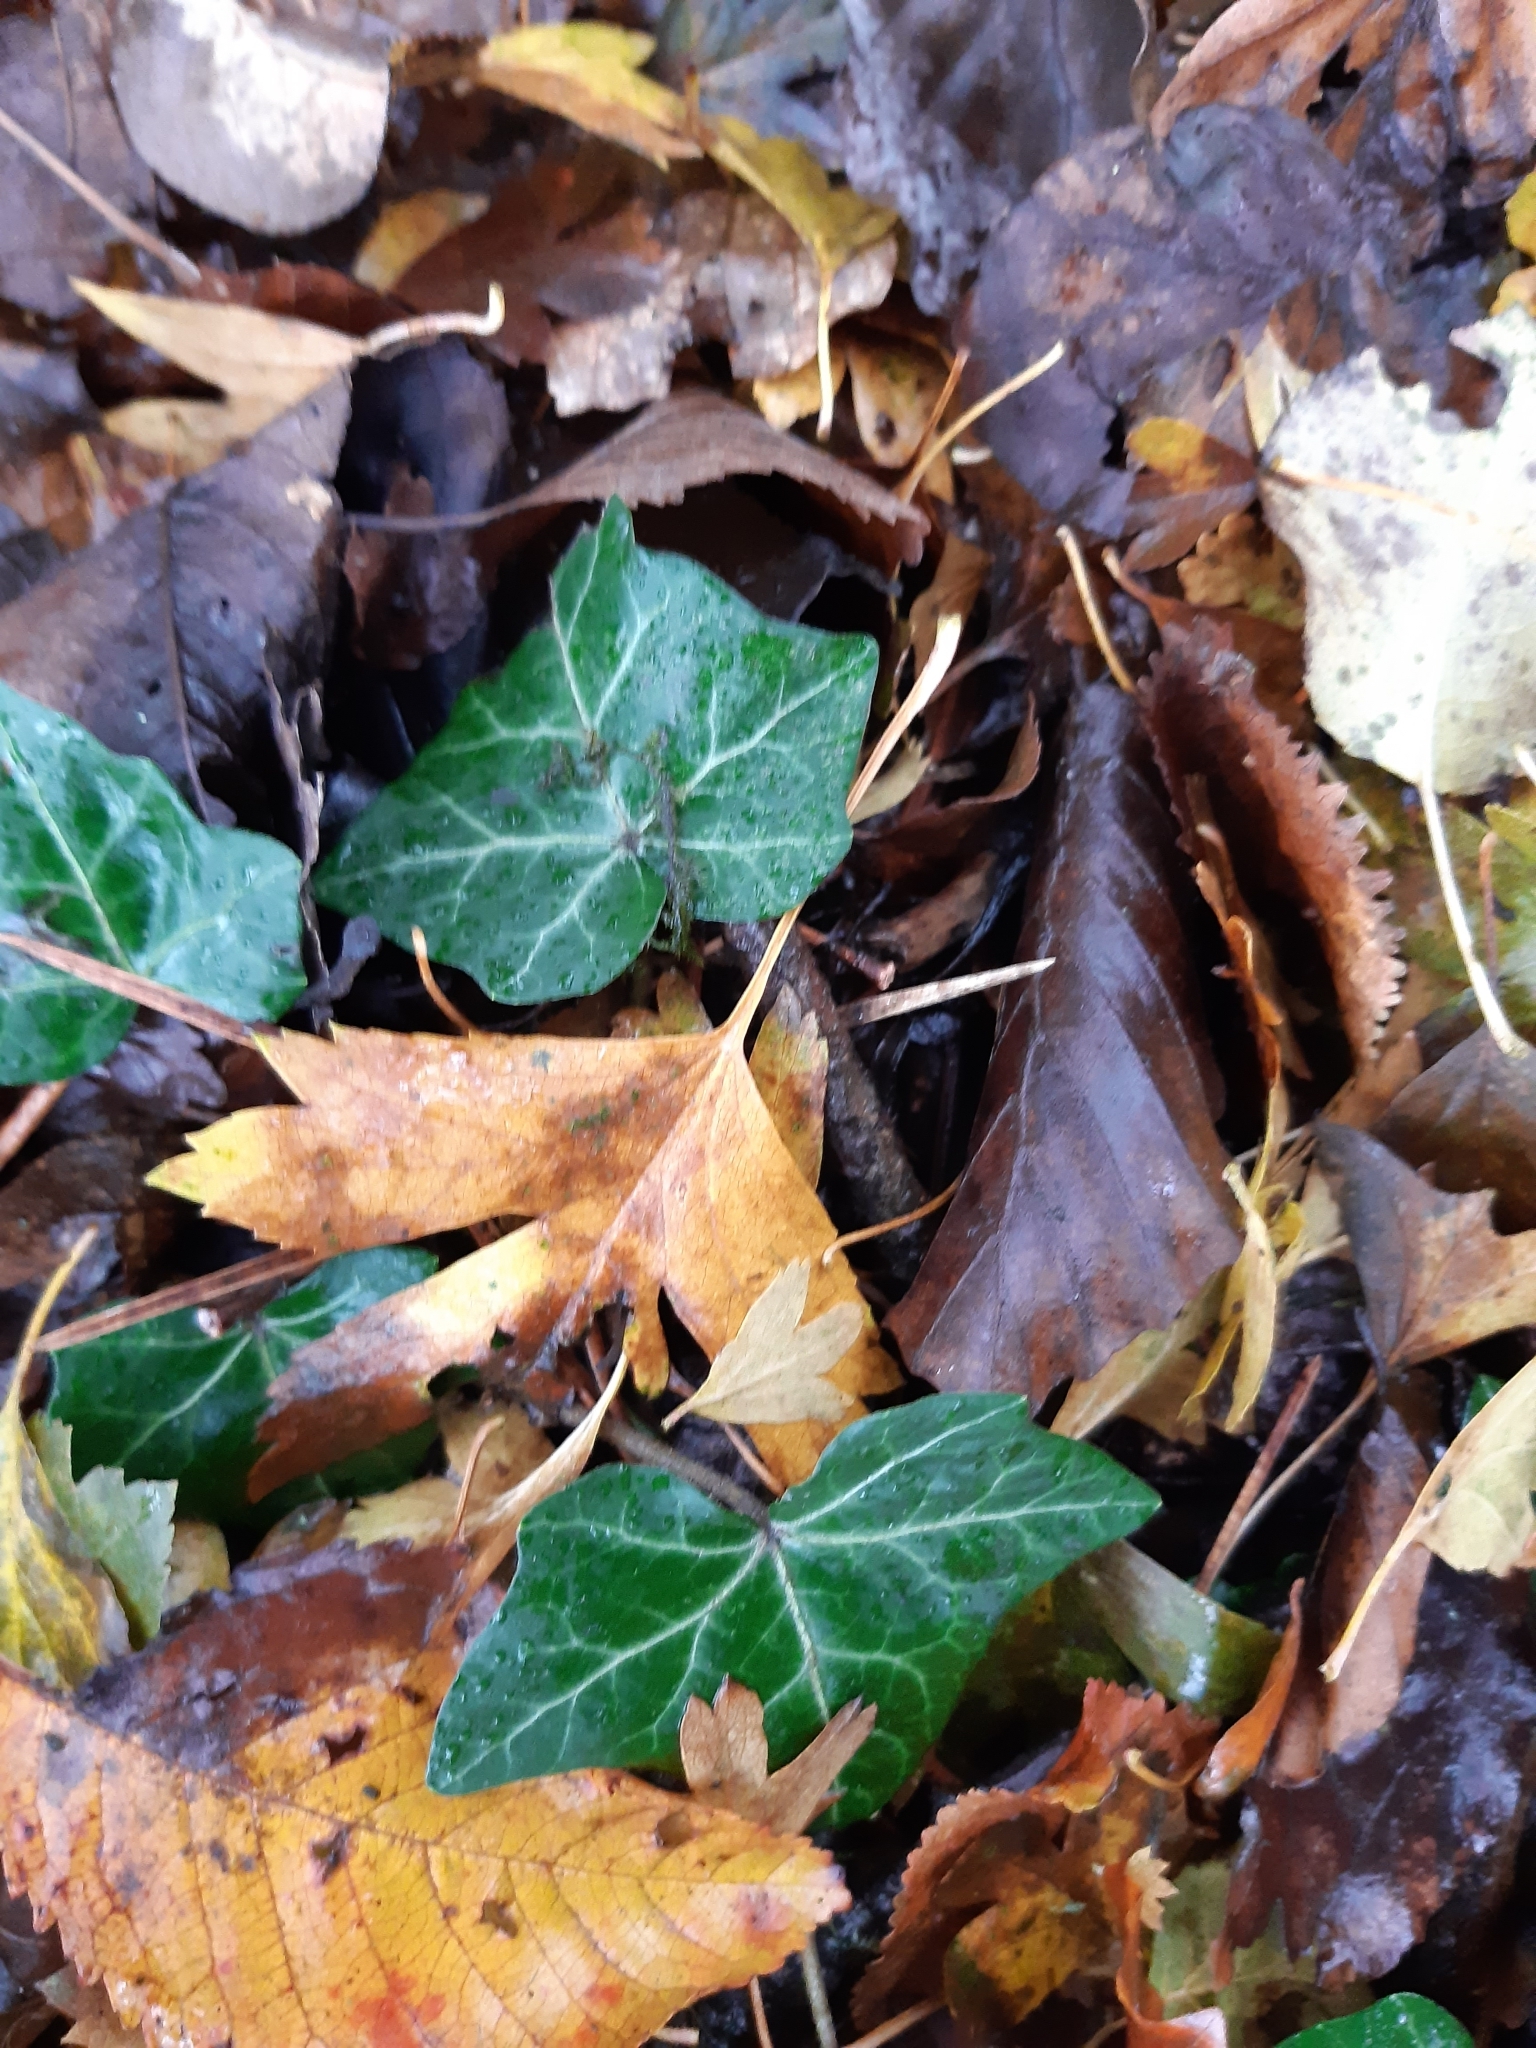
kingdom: Plantae
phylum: Tracheophyta
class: Magnoliopsida
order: Apiales
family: Araliaceae
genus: Hedera
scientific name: Hedera helix
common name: Ivy
